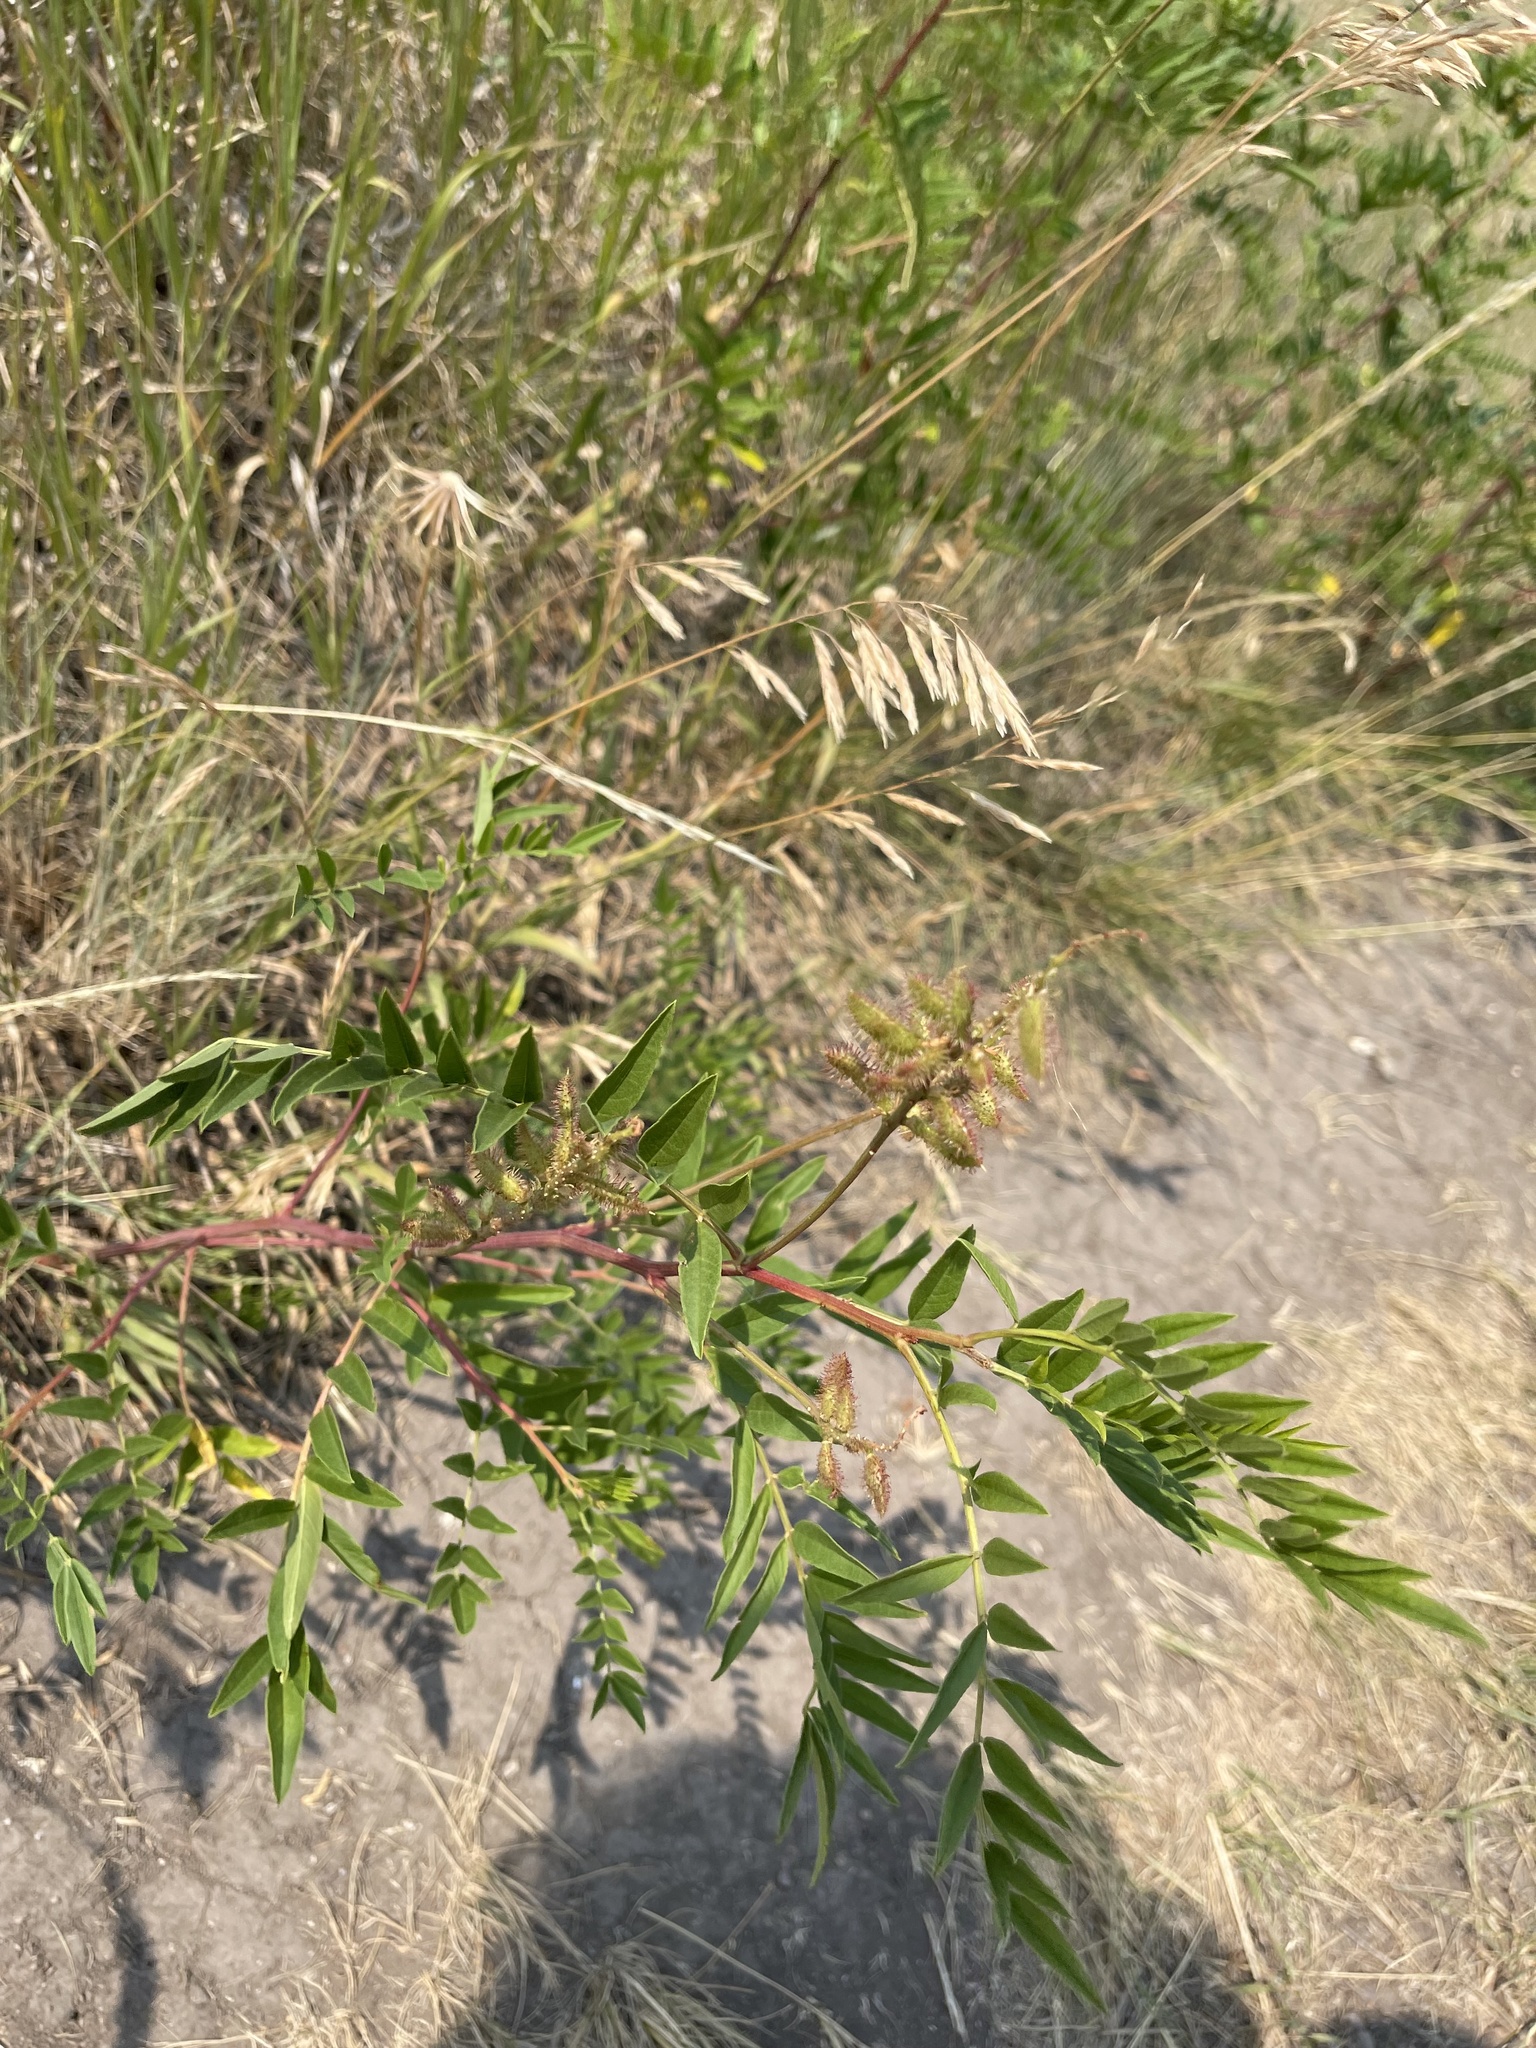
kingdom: Plantae
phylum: Tracheophyta
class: Magnoliopsida
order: Fabales
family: Fabaceae
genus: Glycyrrhiza
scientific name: Glycyrrhiza lepidota
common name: American liquorice
